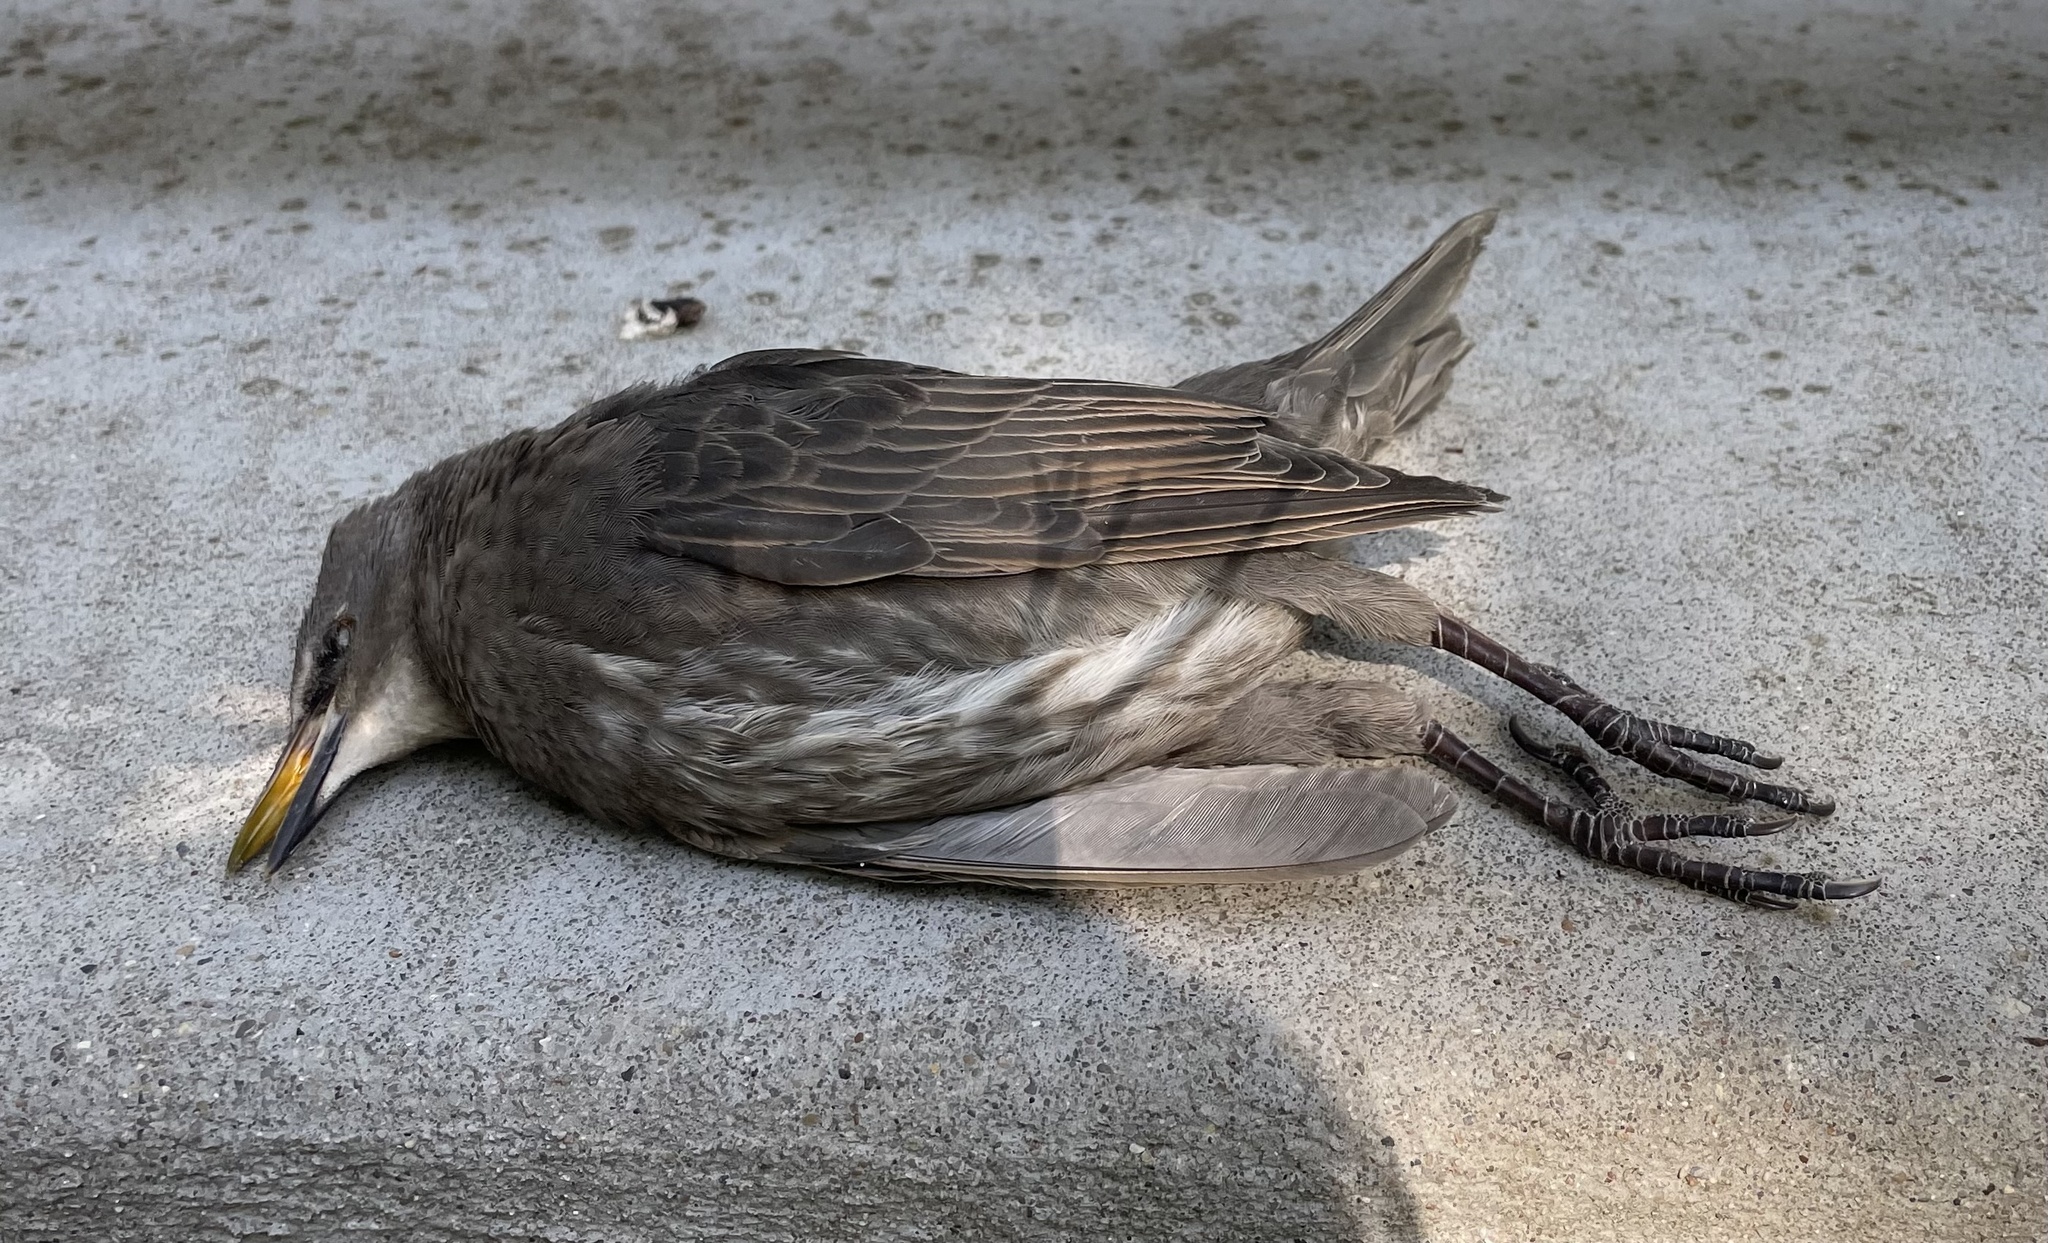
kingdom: Animalia
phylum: Chordata
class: Aves
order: Passeriformes
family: Sturnidae
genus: Sturnus
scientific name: Sturnus vulgaris
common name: Common starling
